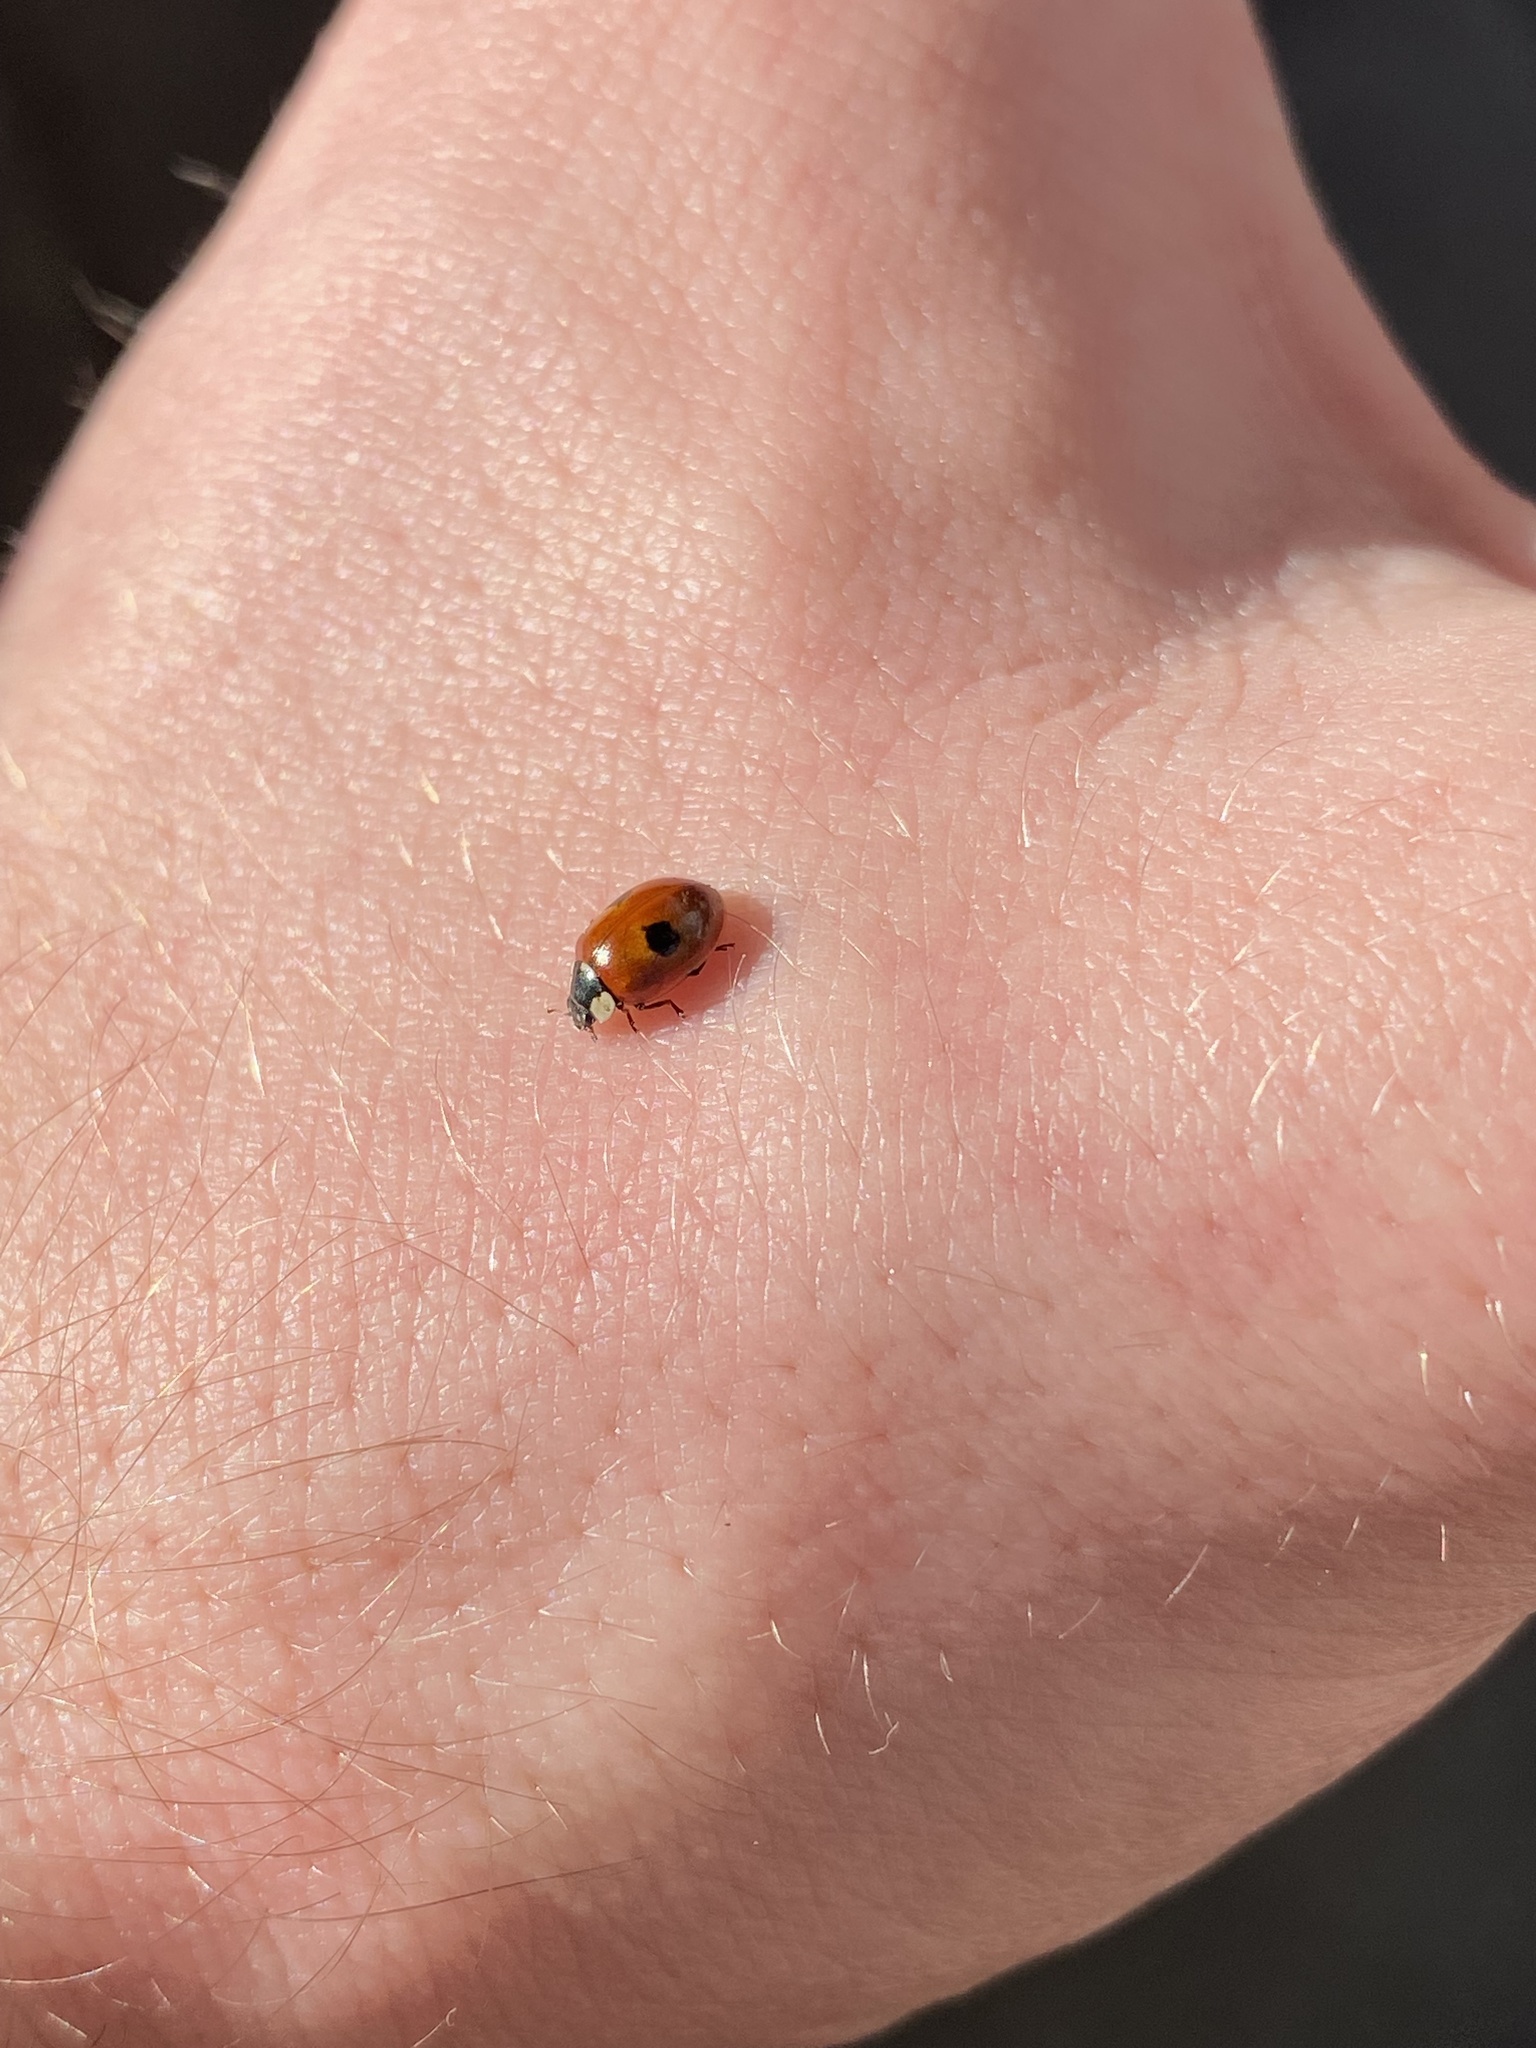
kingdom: Animalia
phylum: Arthropoda
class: Insecta
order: Coleoptera
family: Coccinellidae
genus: Adalia
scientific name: Adalia bipunctata
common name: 2-spot ladybird
